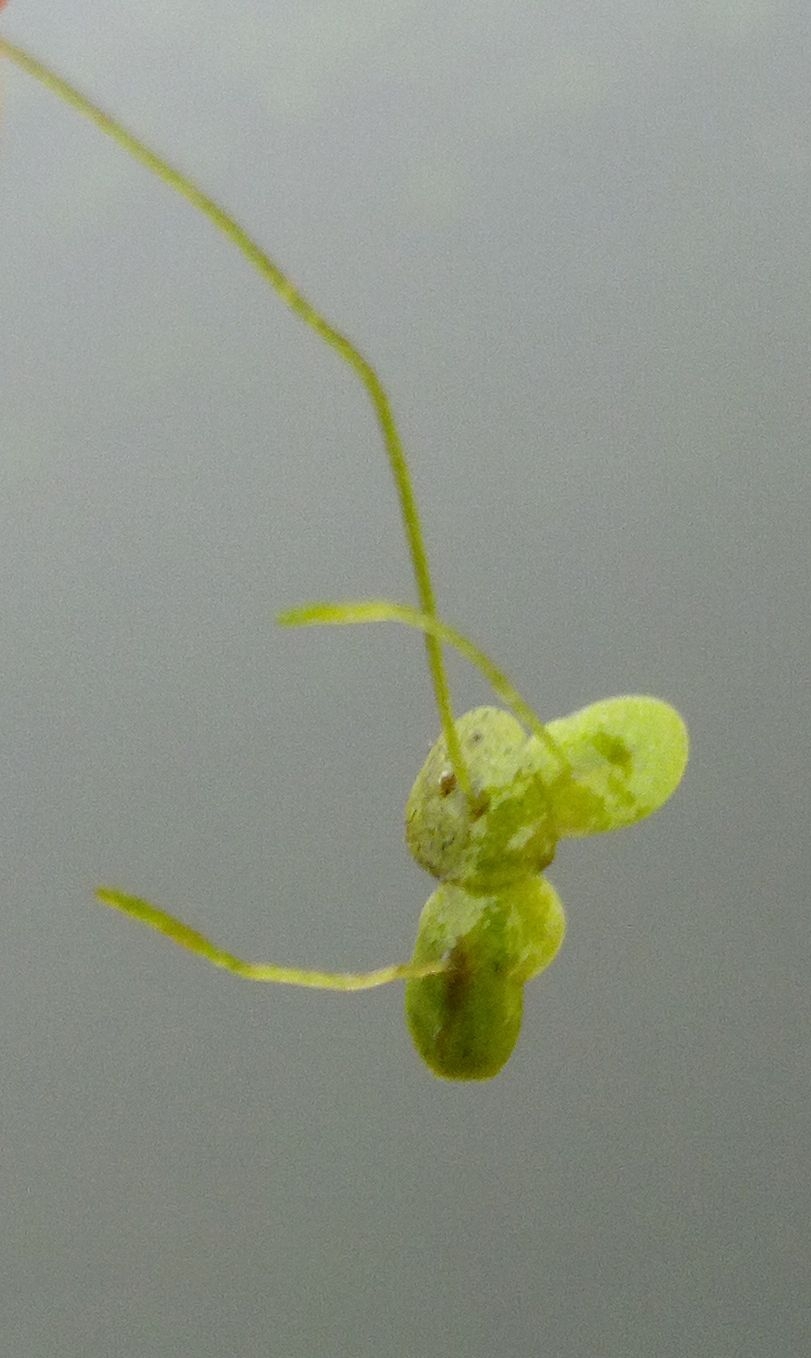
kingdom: Plantae
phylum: Tracheophyta
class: Liliopsida
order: Alismatales
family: Araceae
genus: Lemna
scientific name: Lemna minor
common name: Common duckweed
